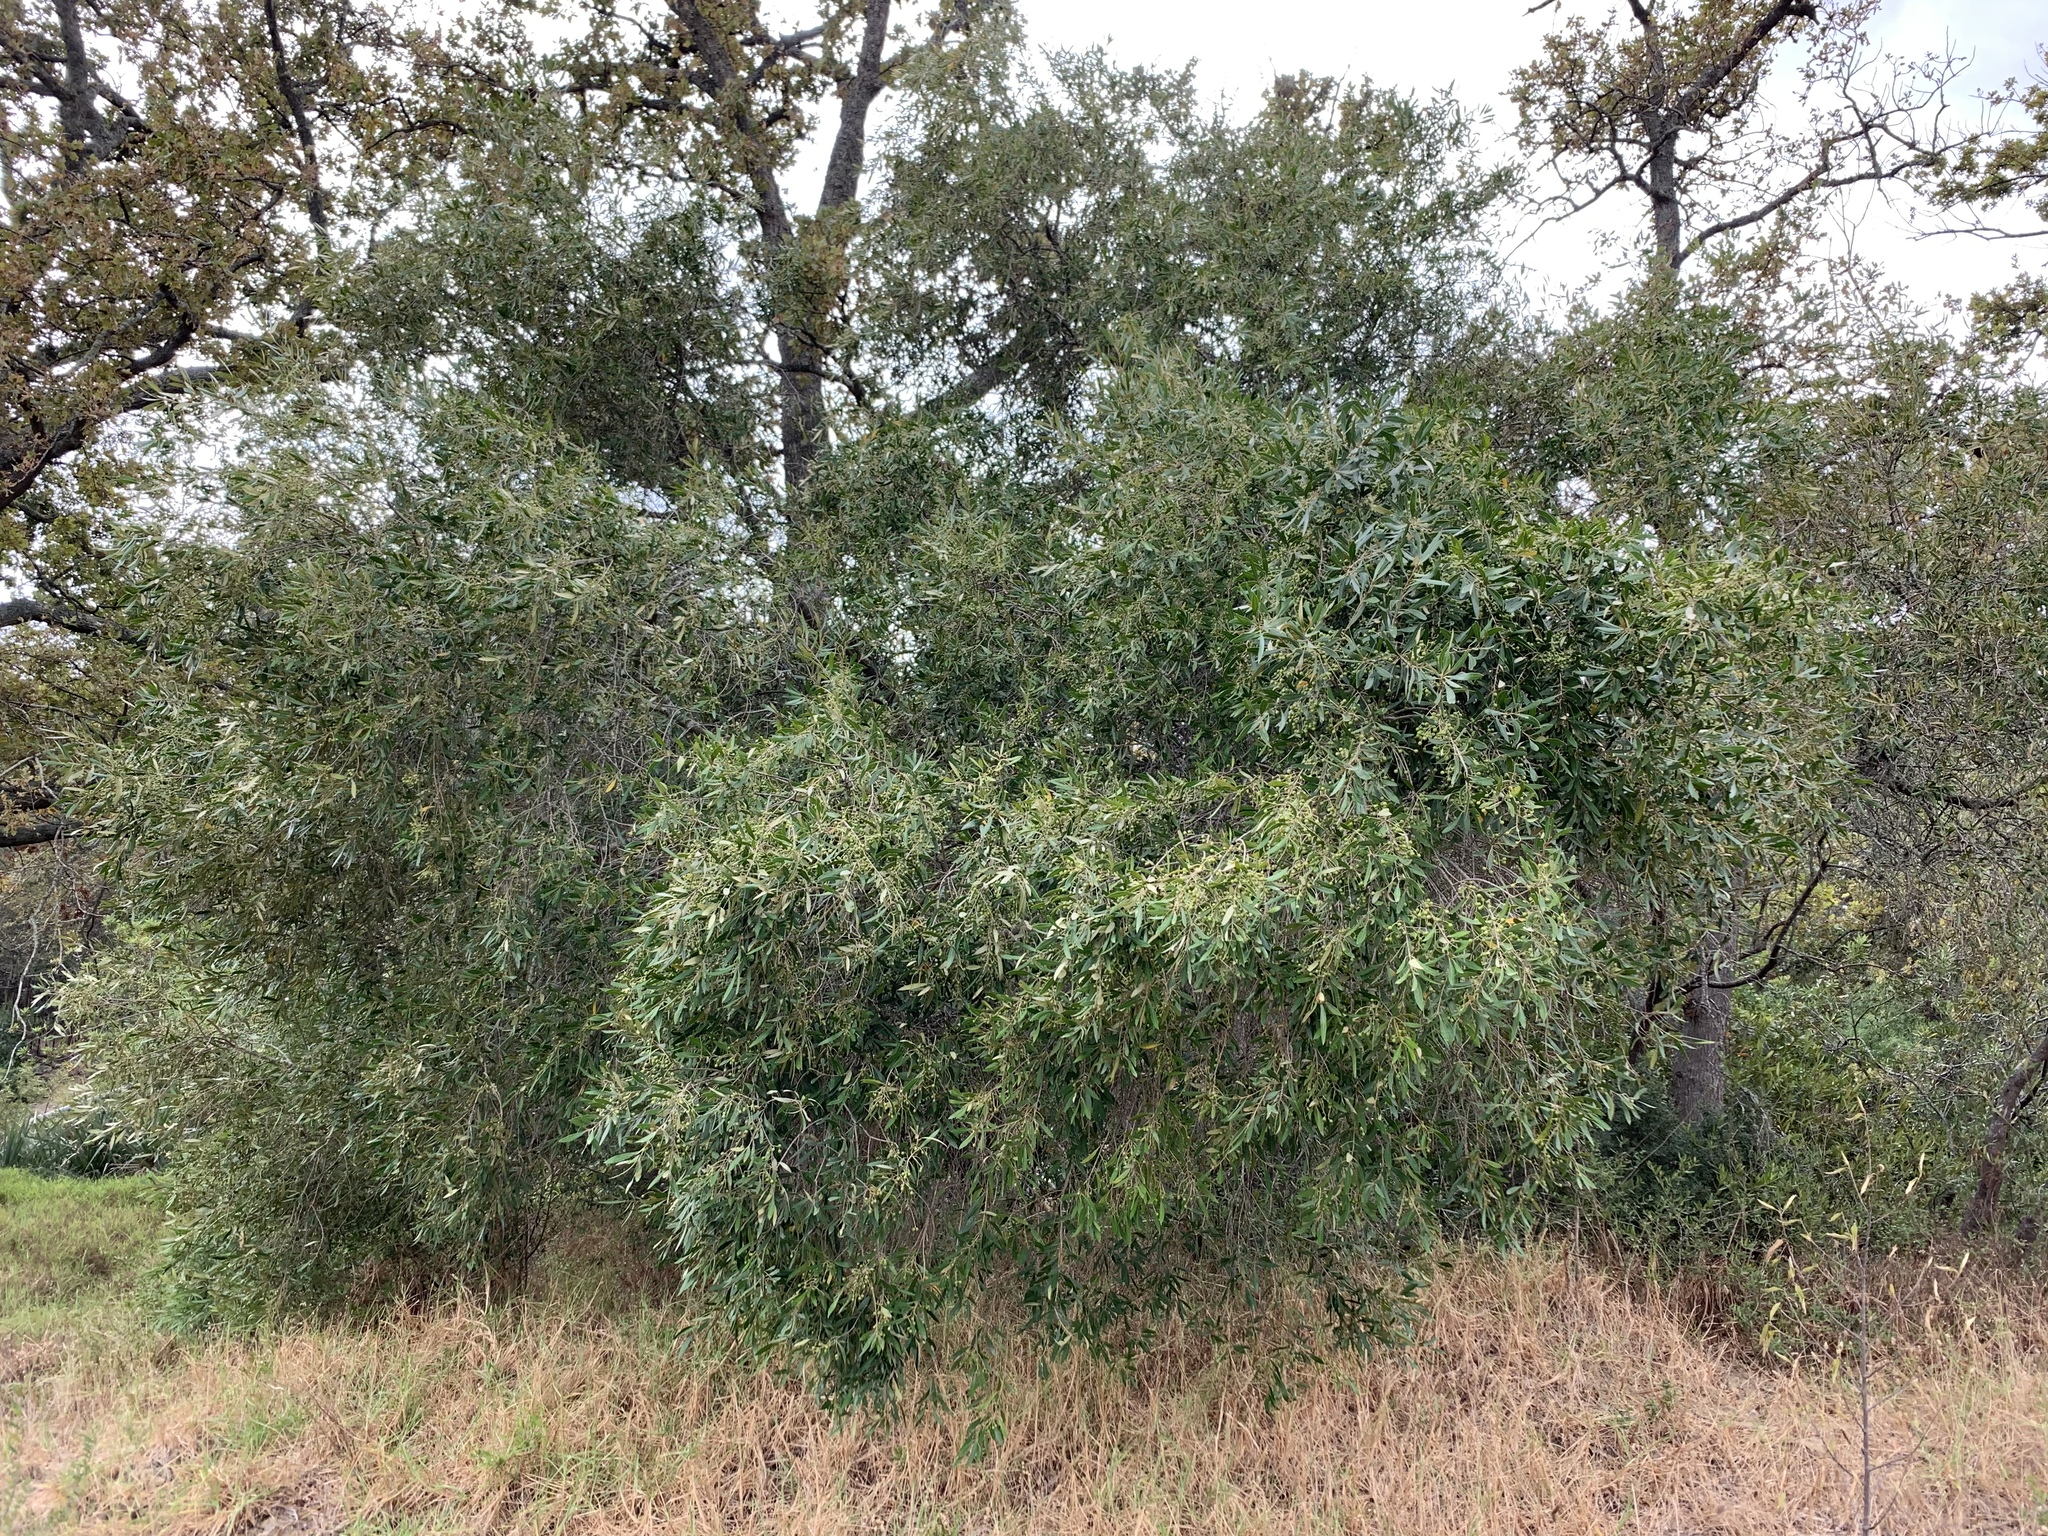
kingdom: Plantae
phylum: Tracheophyta
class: Magnoliopsida
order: Lamiales
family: Oleaceae
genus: Olea
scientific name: Olea europaea
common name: Olive
